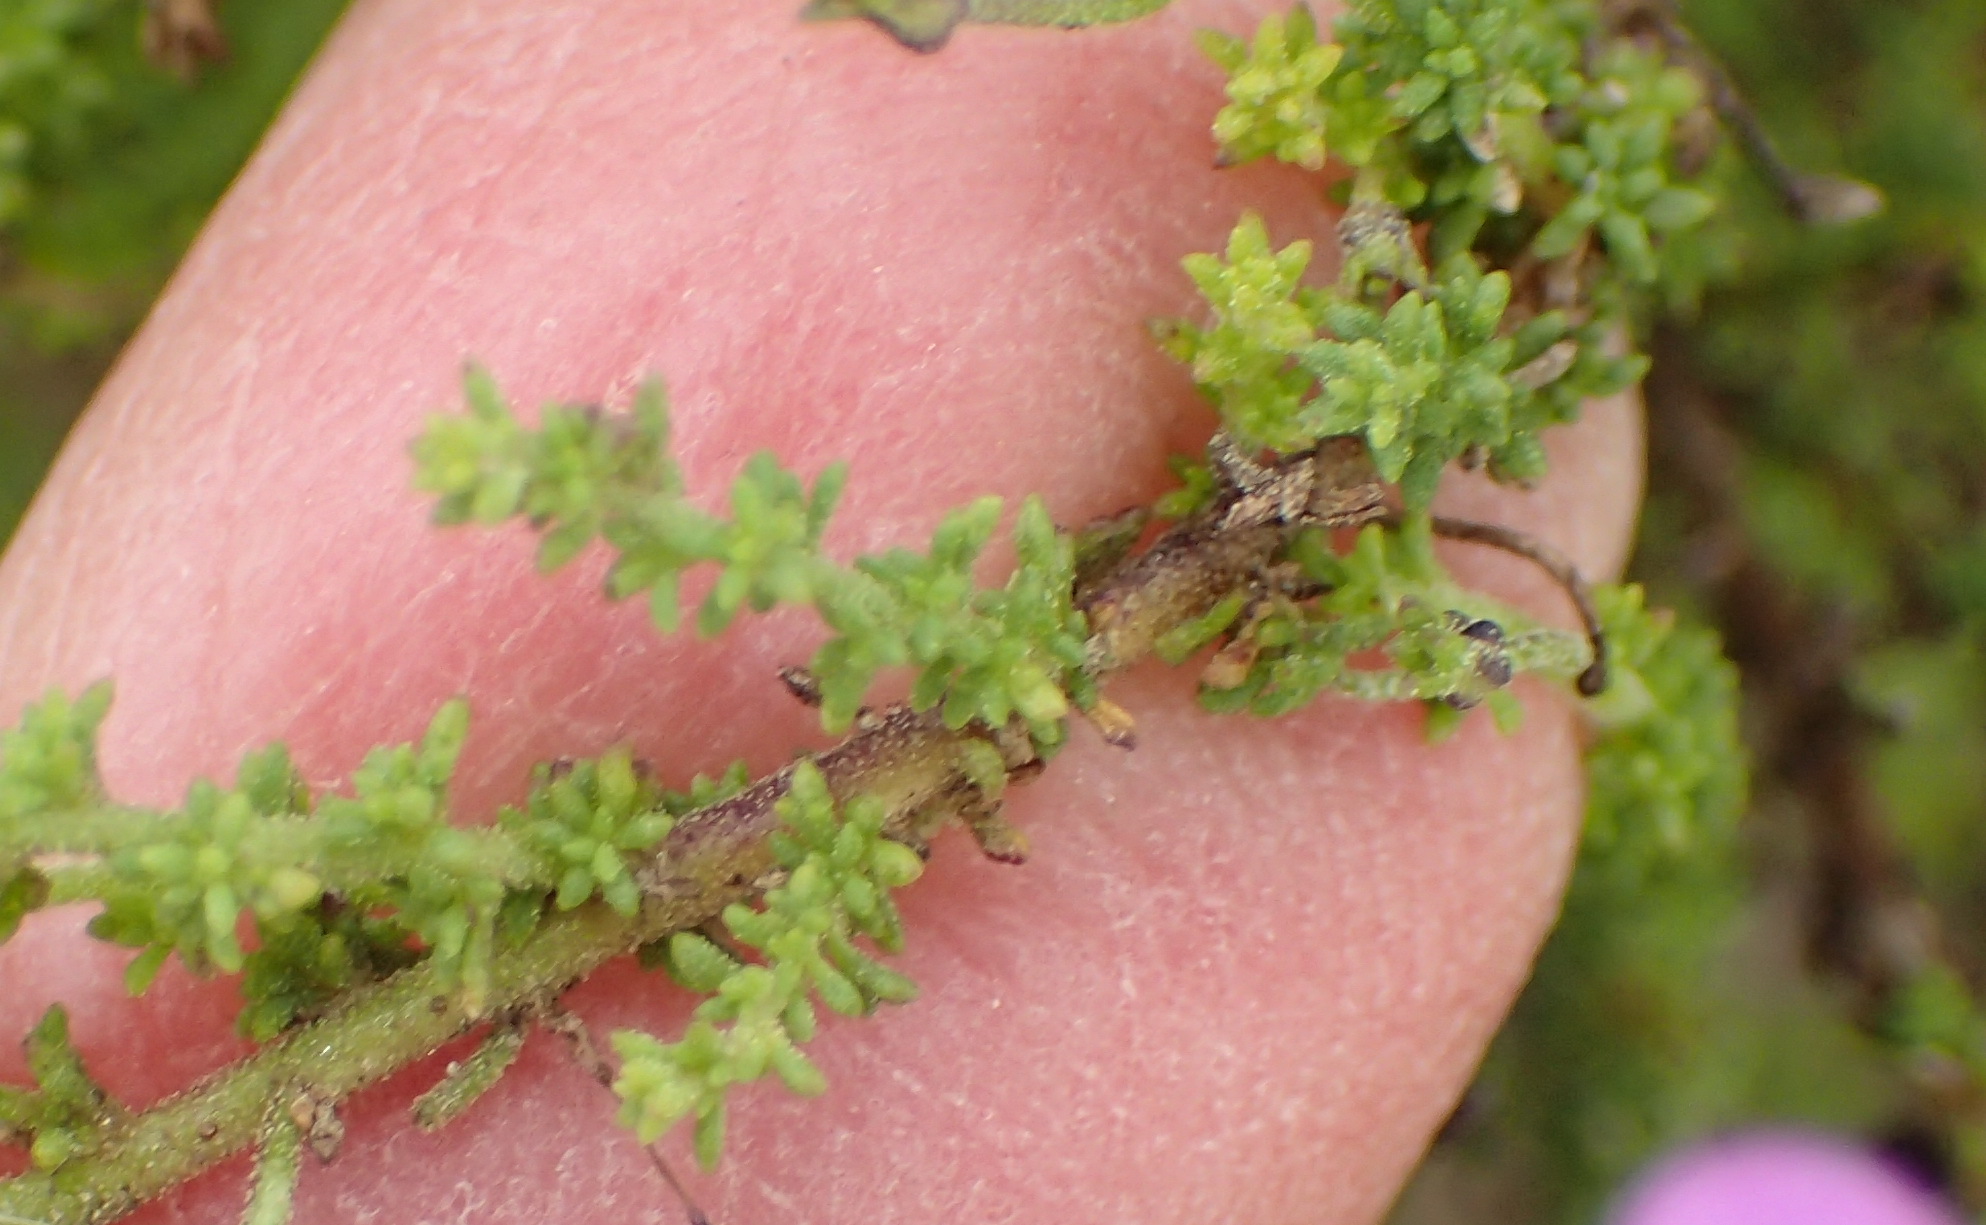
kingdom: Plantae
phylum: Tracheophyta
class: Magnoliopsida
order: Lamiales
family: Scrophulariaceae
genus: Jamesbrittenia
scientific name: Jamesbrittenia tenuifolia
